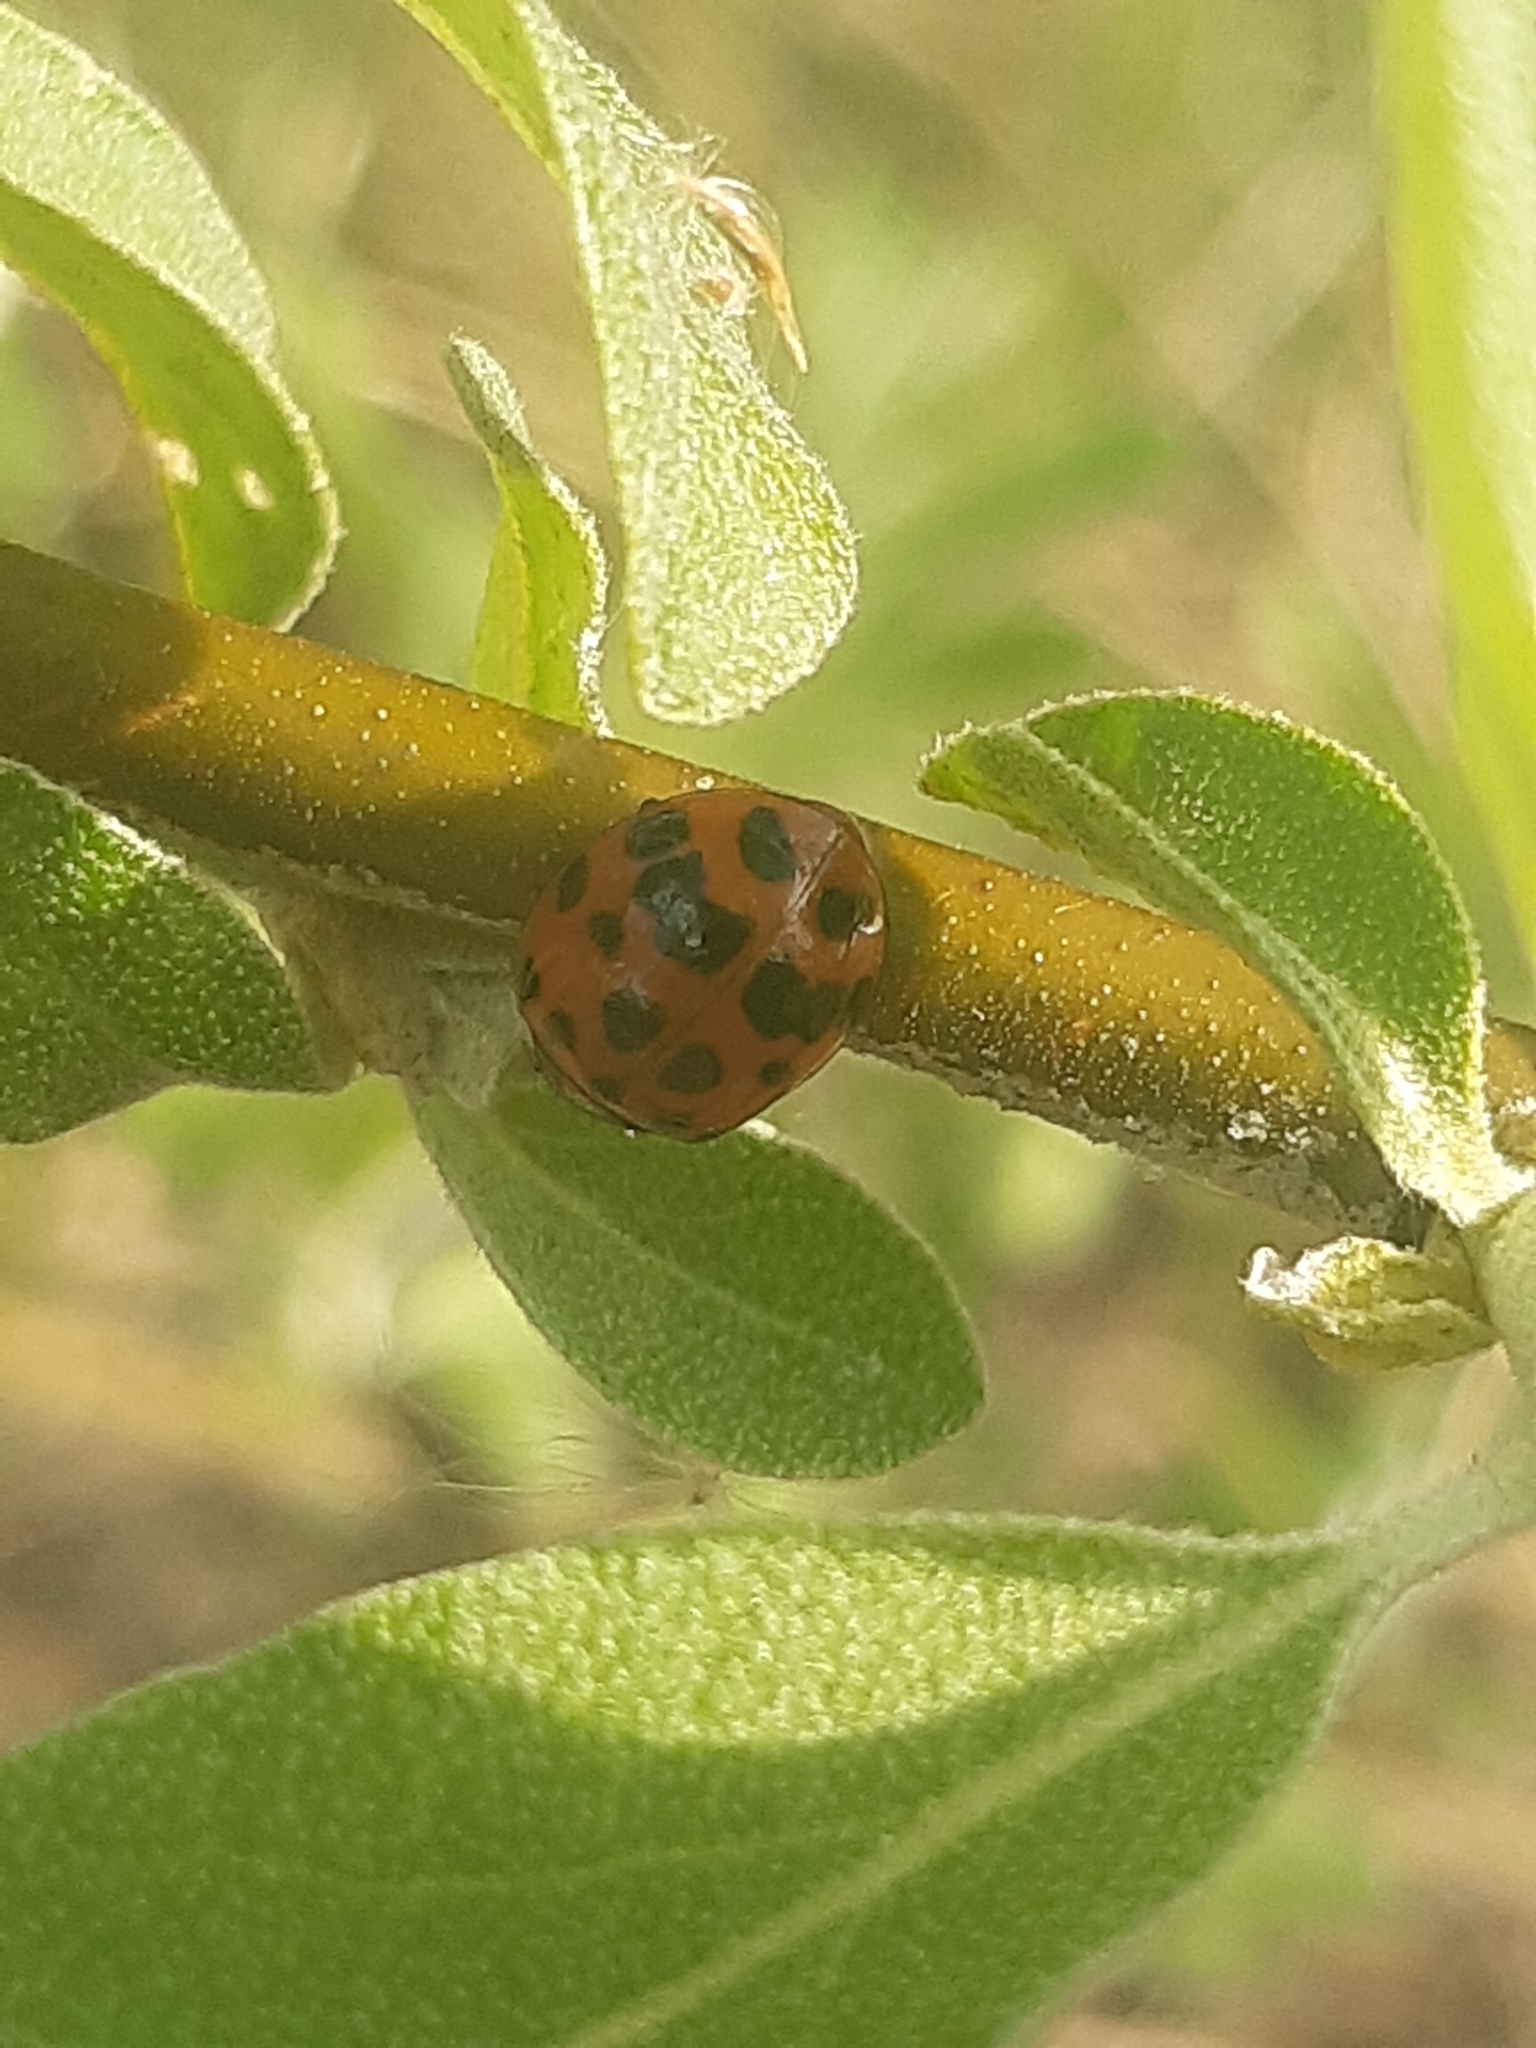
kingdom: Animalia
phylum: Arthropoda
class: Insecta
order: Coleoptera
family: Coccinellidae
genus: Harmonia
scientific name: Harmonia axyridis
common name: Harlequin ladybird
